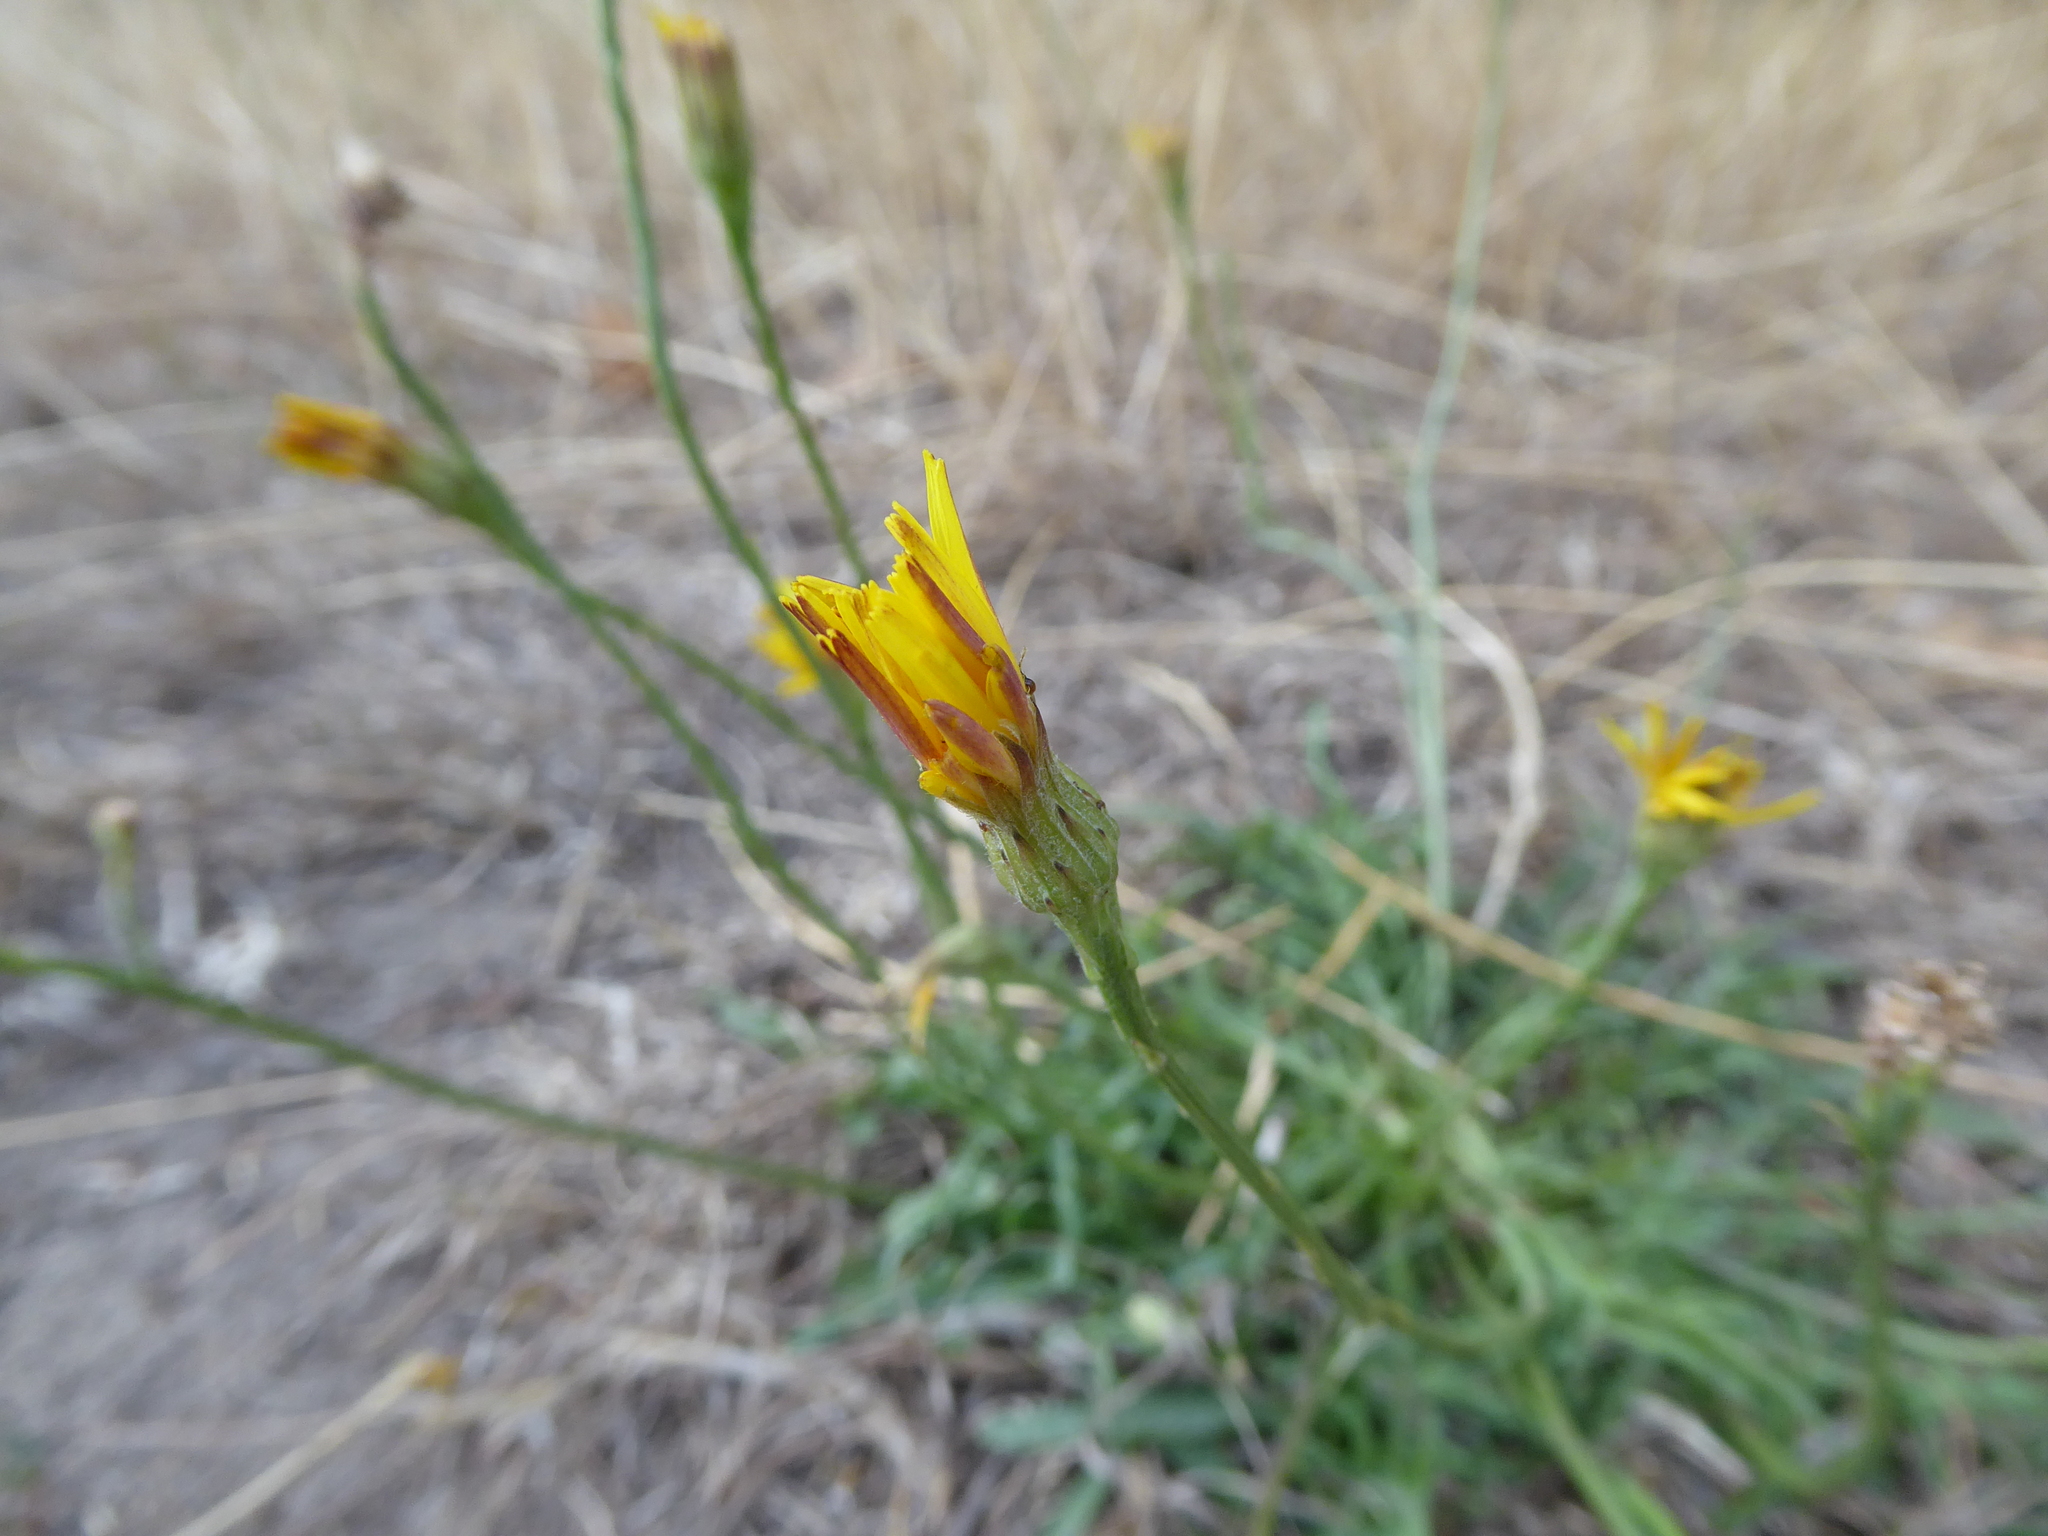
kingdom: Plantae
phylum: Tracheophyta
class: Magnoliopsida
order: Asterales
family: Asteraceae
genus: Scorzoneroides
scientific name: Scorzoneroides autumnalis
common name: Autumn hawkbit
